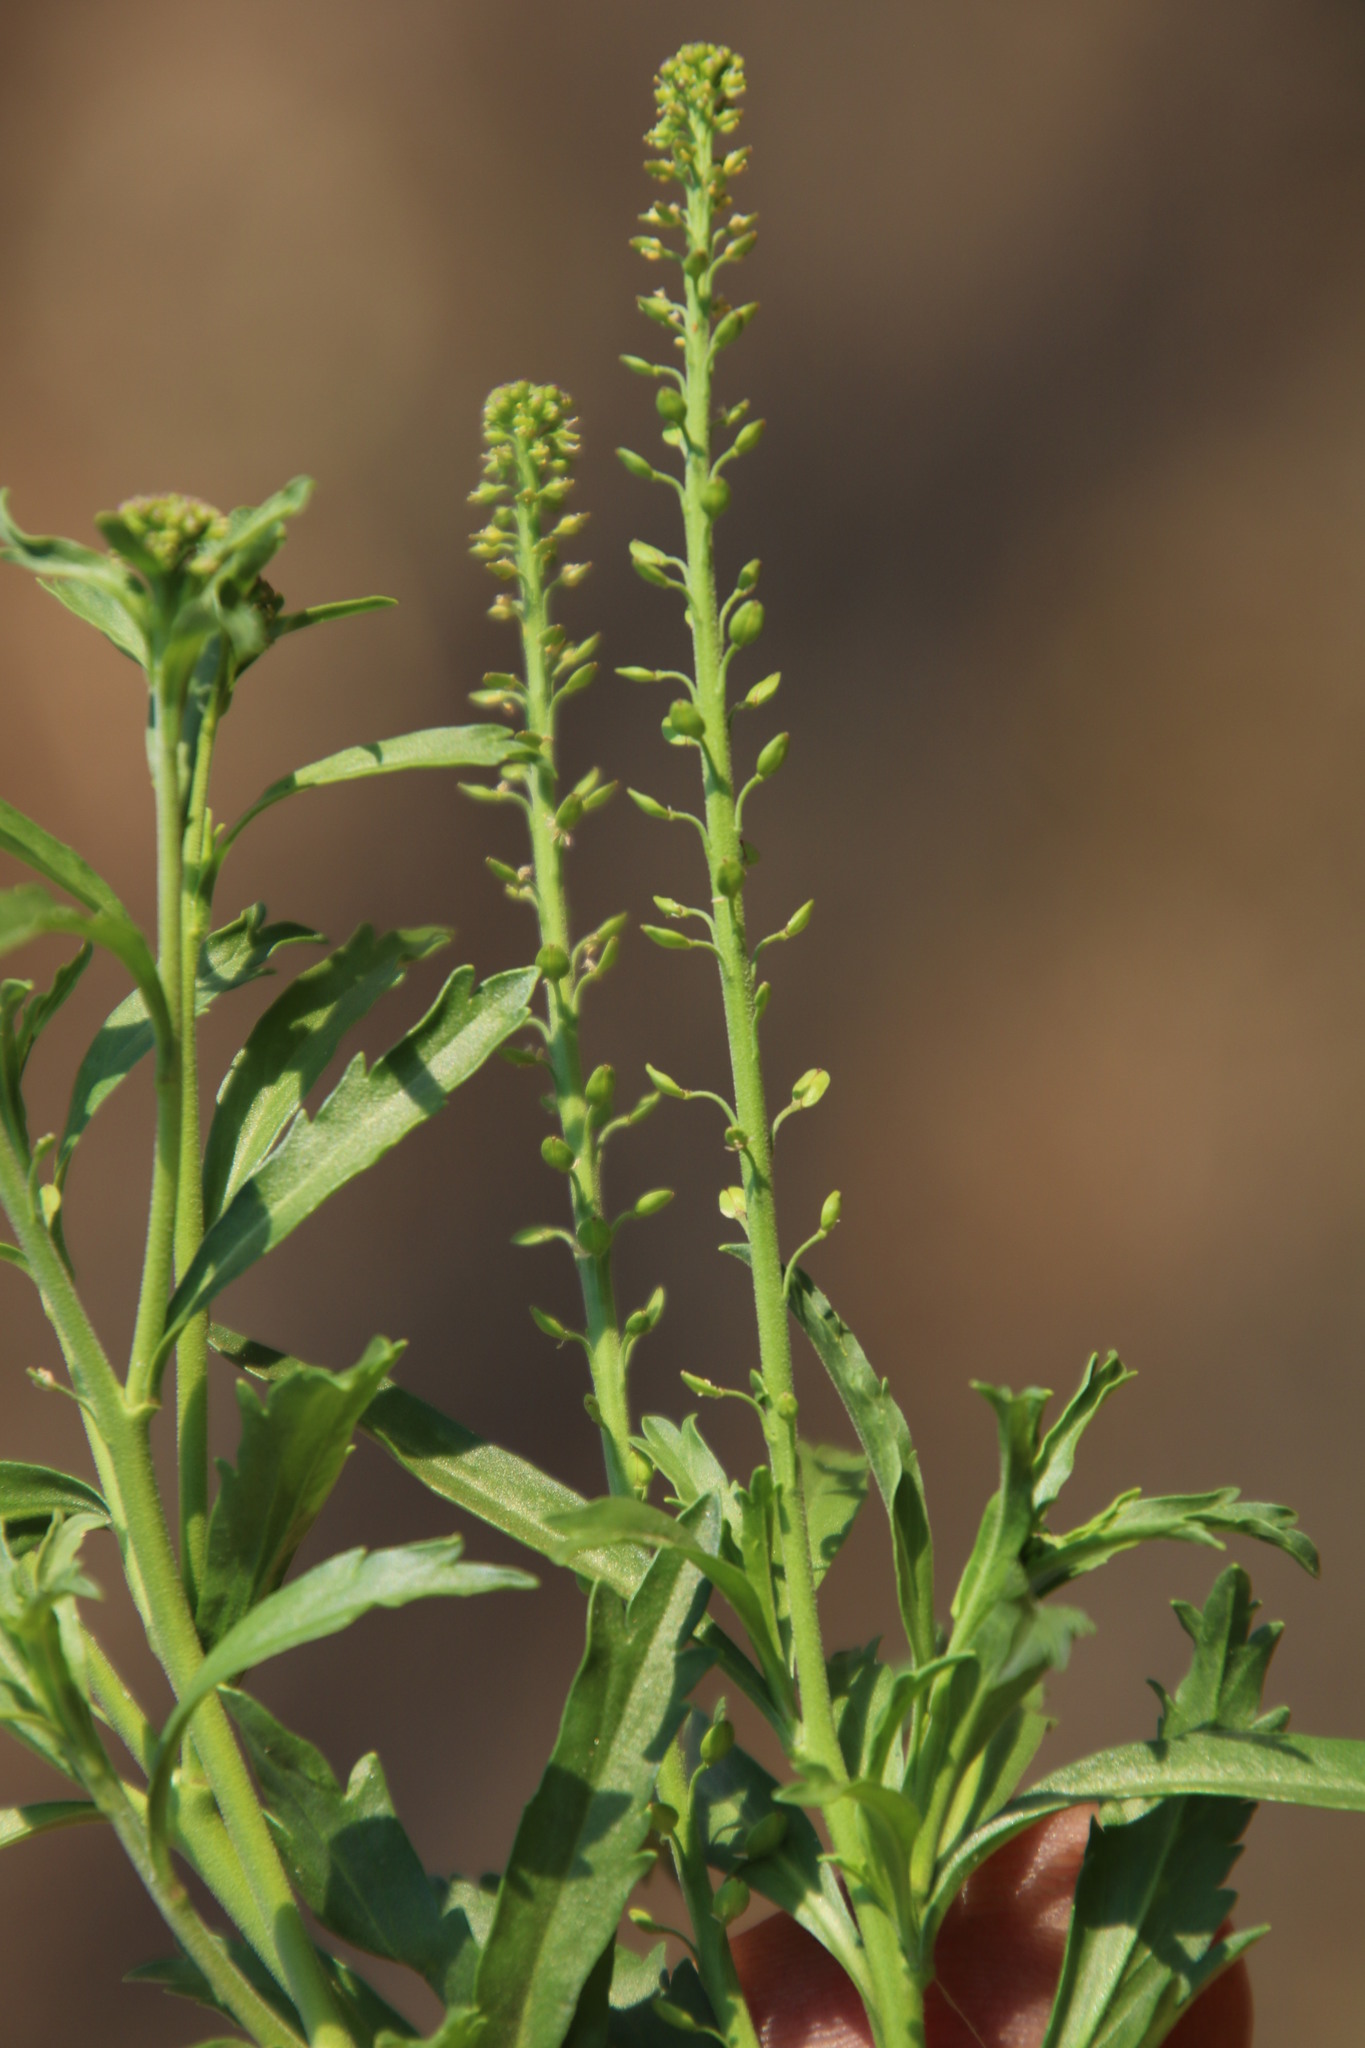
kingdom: Plantae
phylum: Tracheophyta
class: Magnoliopsida
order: Brassicales
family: Brassicaceae
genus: Lepidium
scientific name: Lepidium africanum
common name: African pepperwort
